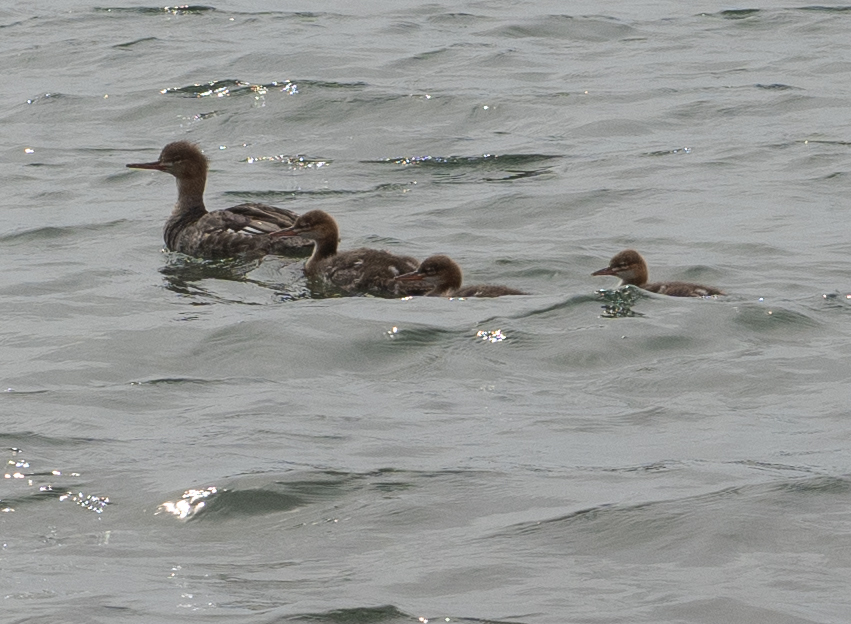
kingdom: Animalia
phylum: Chordata
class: Aves
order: Anseriformes
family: Anatidae
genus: Mergus
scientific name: Mergus serrator
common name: Red-breasted merganser
